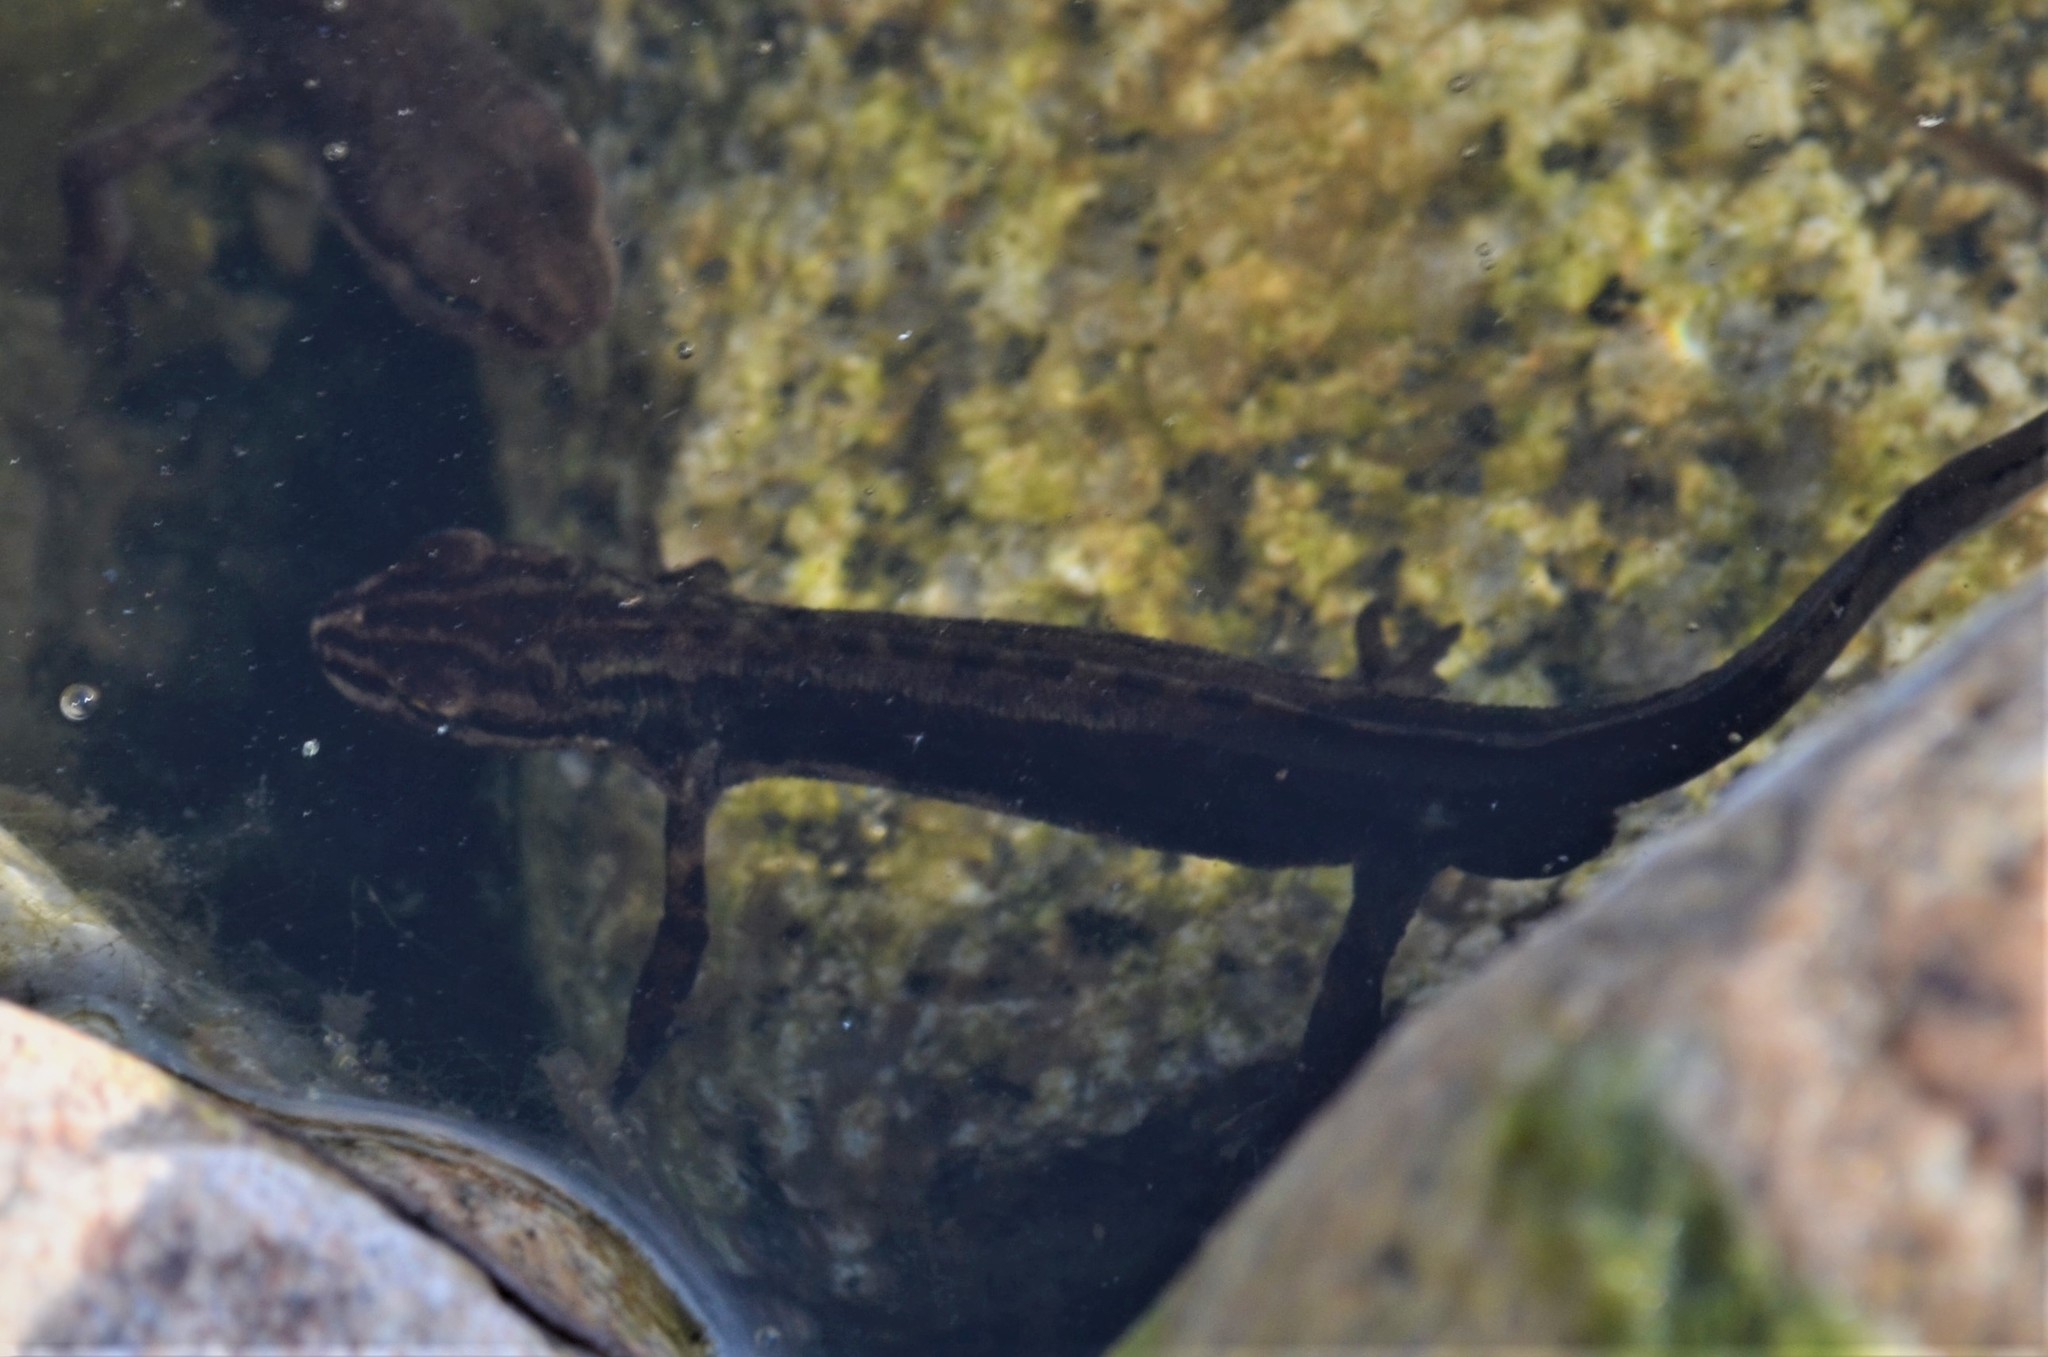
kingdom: Animalia
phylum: Chordata
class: Amphibia
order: Caudata
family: Salamandridae
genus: Lissotriton
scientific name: Lissotriton vulgaris
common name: Smooth newt
